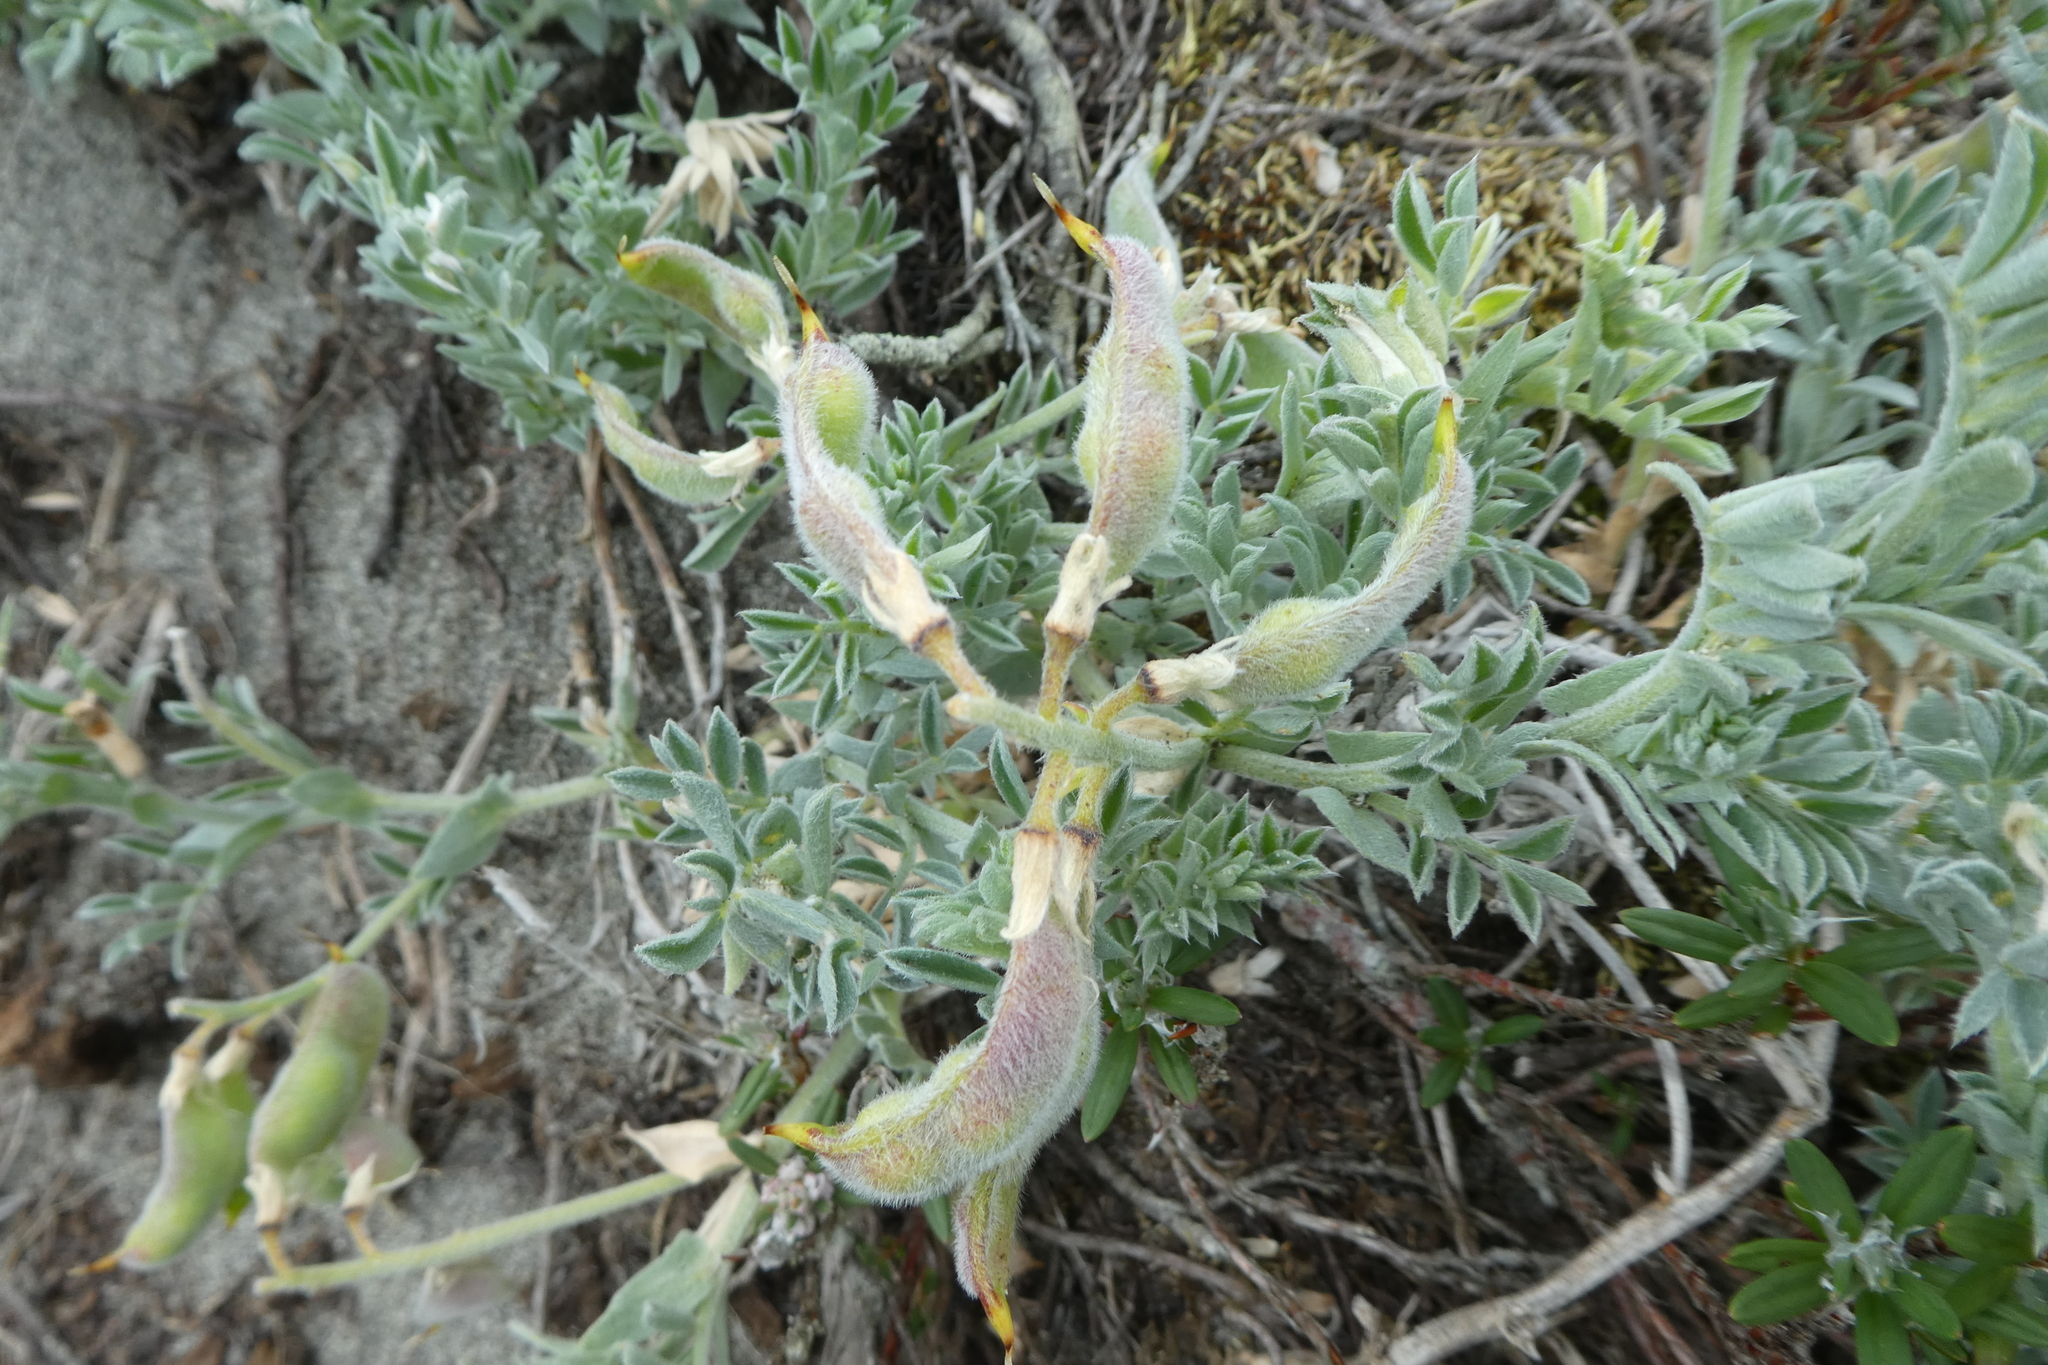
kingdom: Plantae
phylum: Tracheophyta
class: Magnoliopsida
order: Fabales
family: Fabaceae
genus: Lathyrus
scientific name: Lathyrus littoralis
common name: Dune sweet pea
